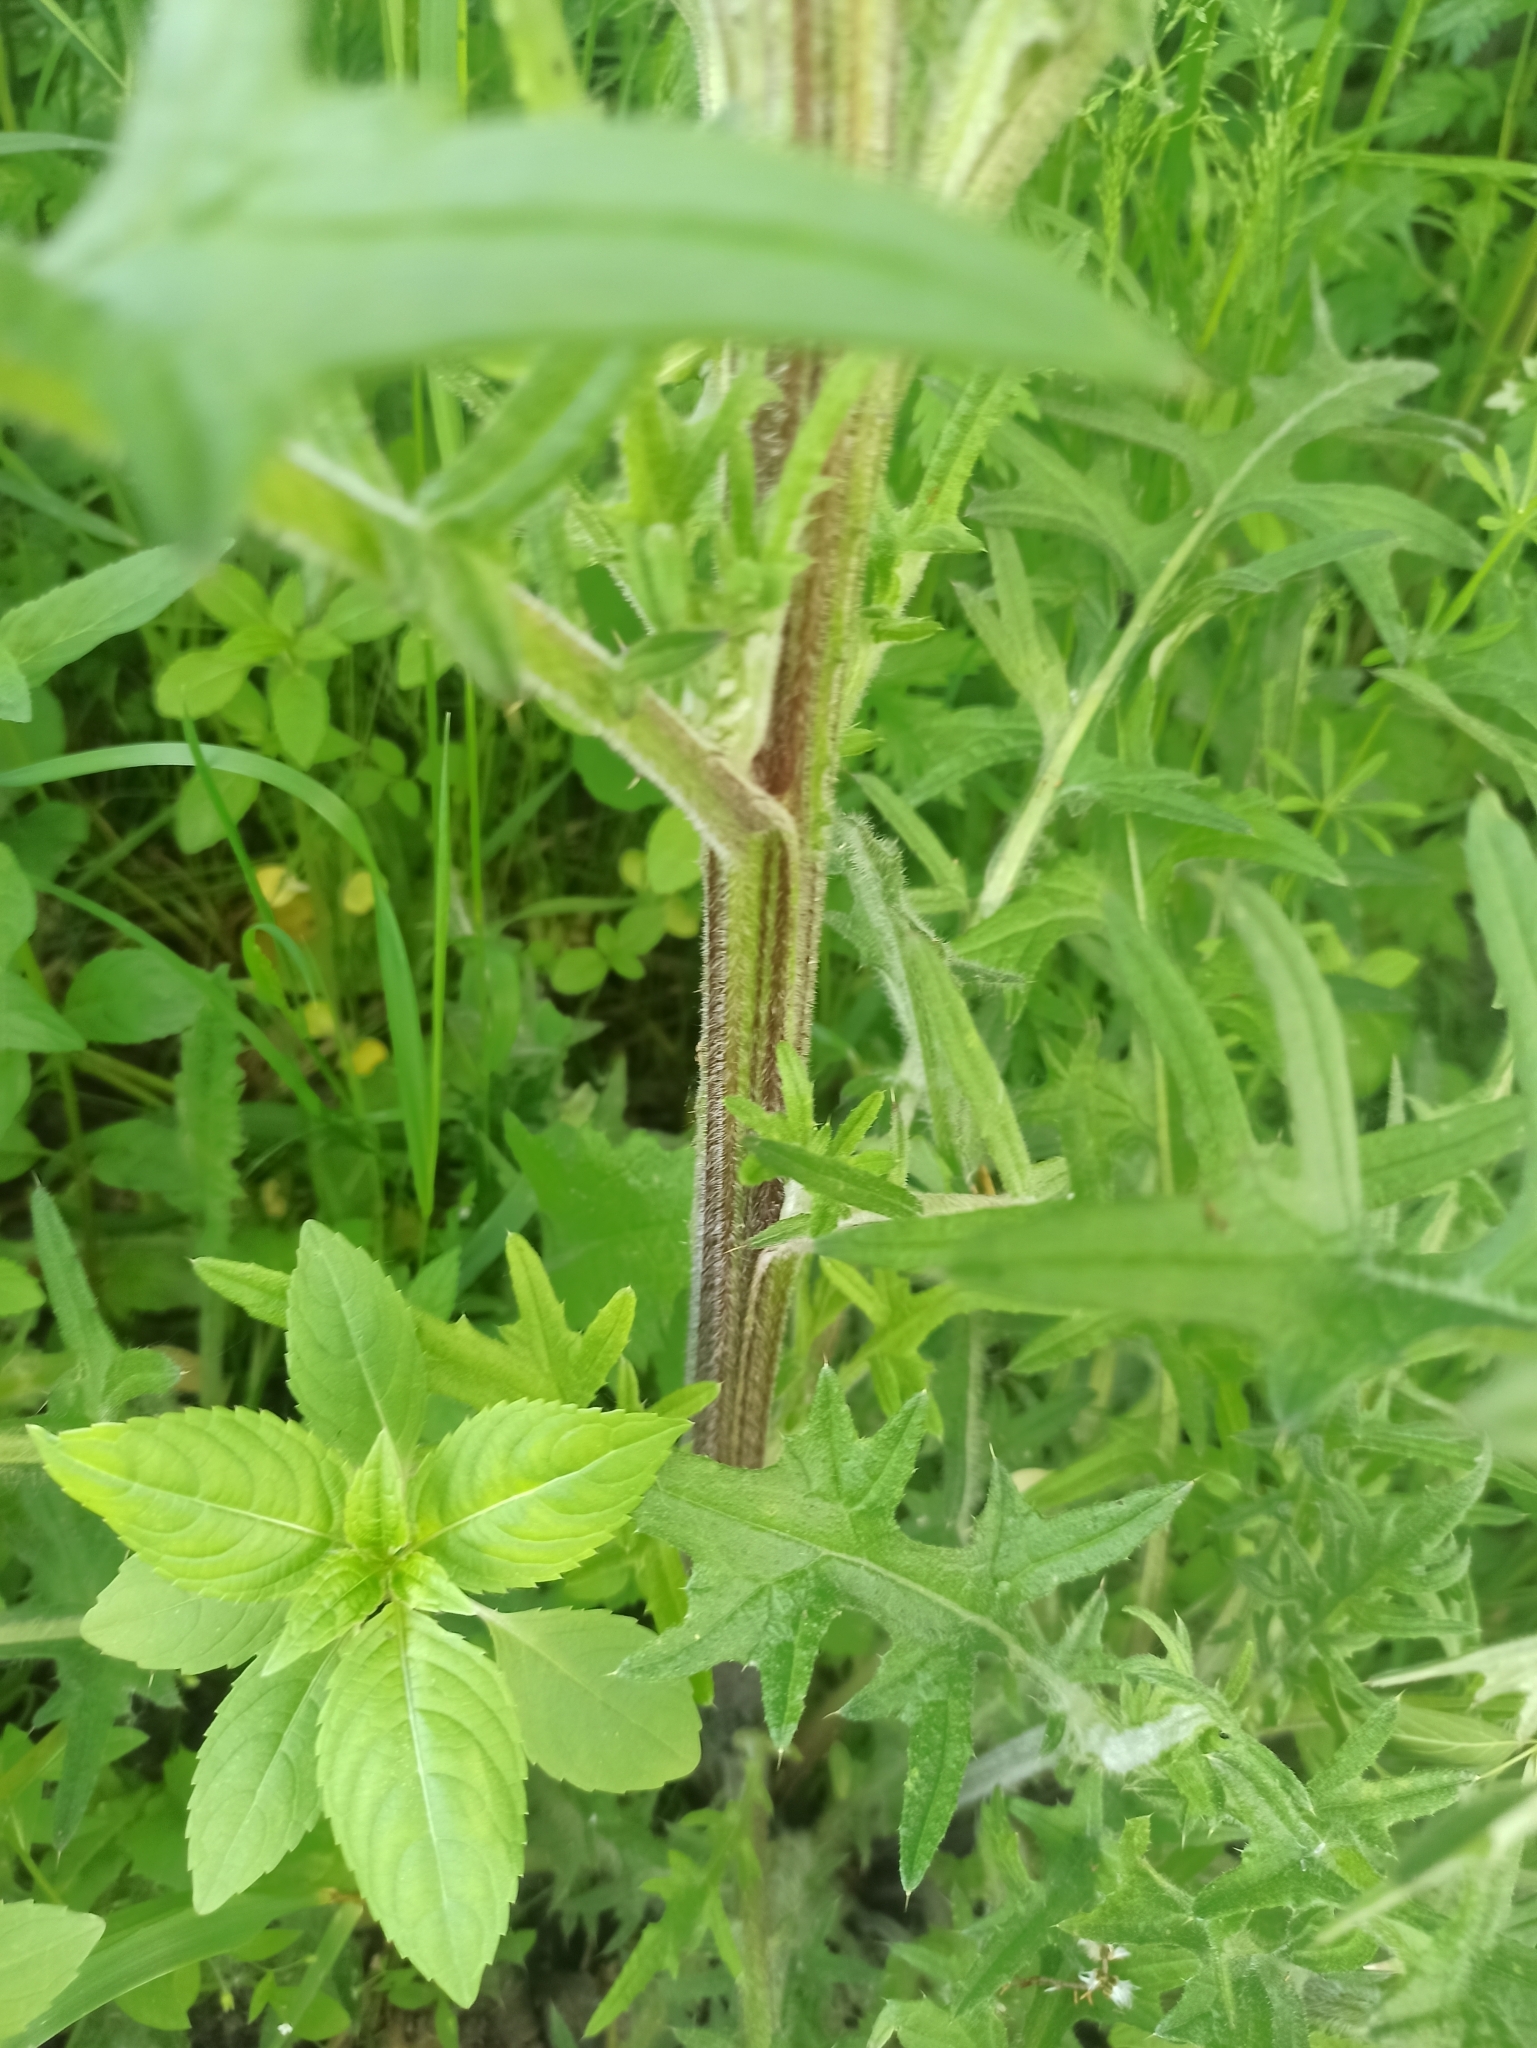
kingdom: Plantae
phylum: Tracheophyta
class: Magnoliopsida
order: Asterales
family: Asteraceae
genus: Lophiolepis
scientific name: Lophiolepis decussata
